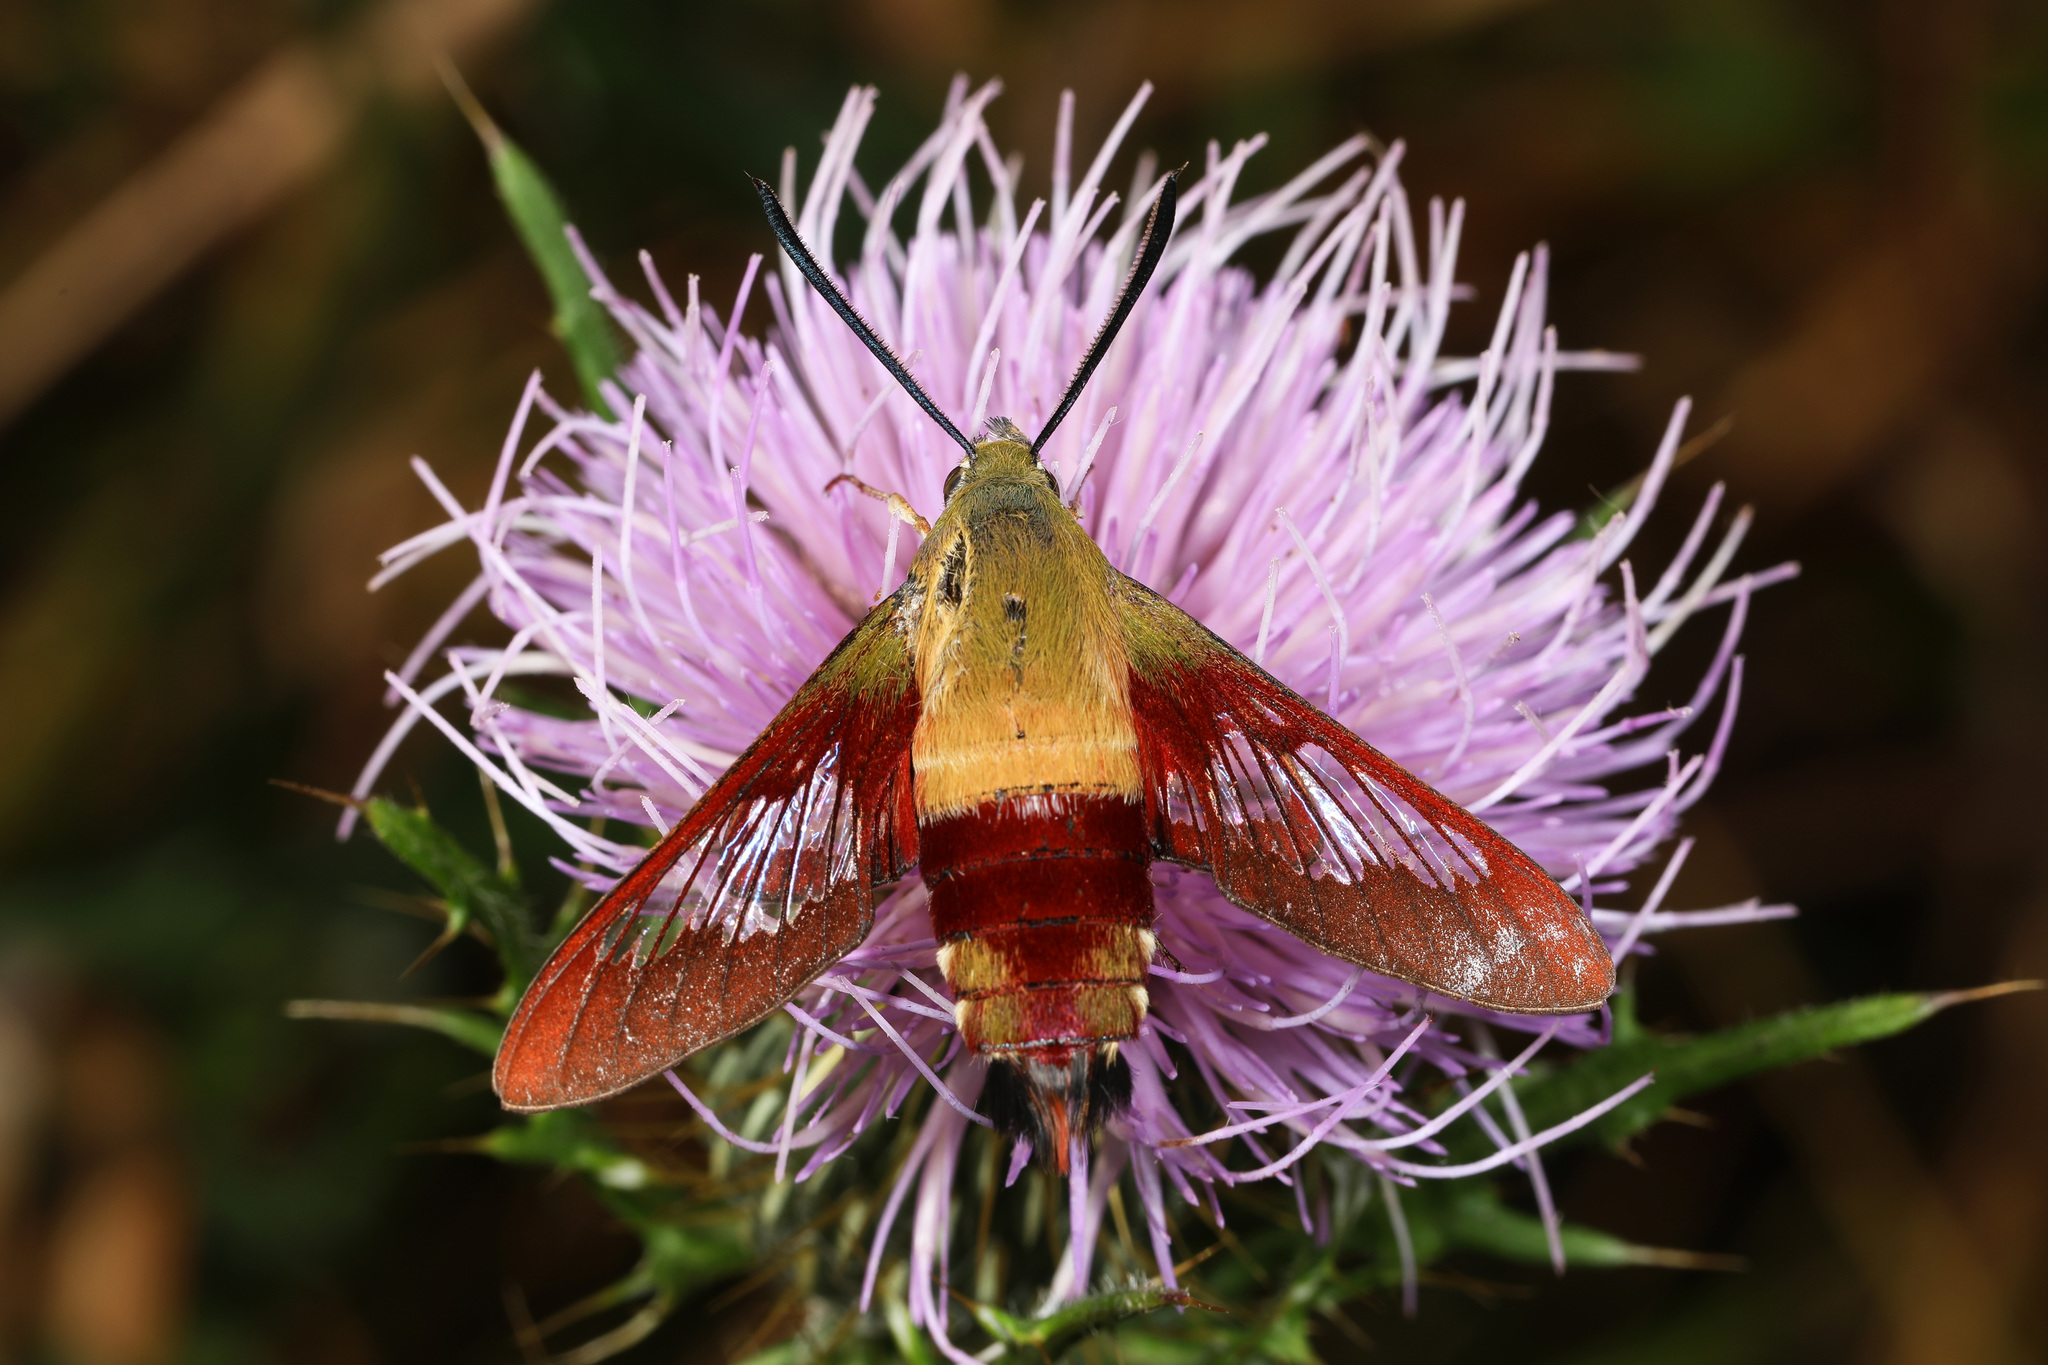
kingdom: Animalia
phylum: Arthropoda
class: Insecta
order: Lepidoptera
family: Sphingidae
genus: Hemaris
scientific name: Hemaris thysbe
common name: Common clear-wing
